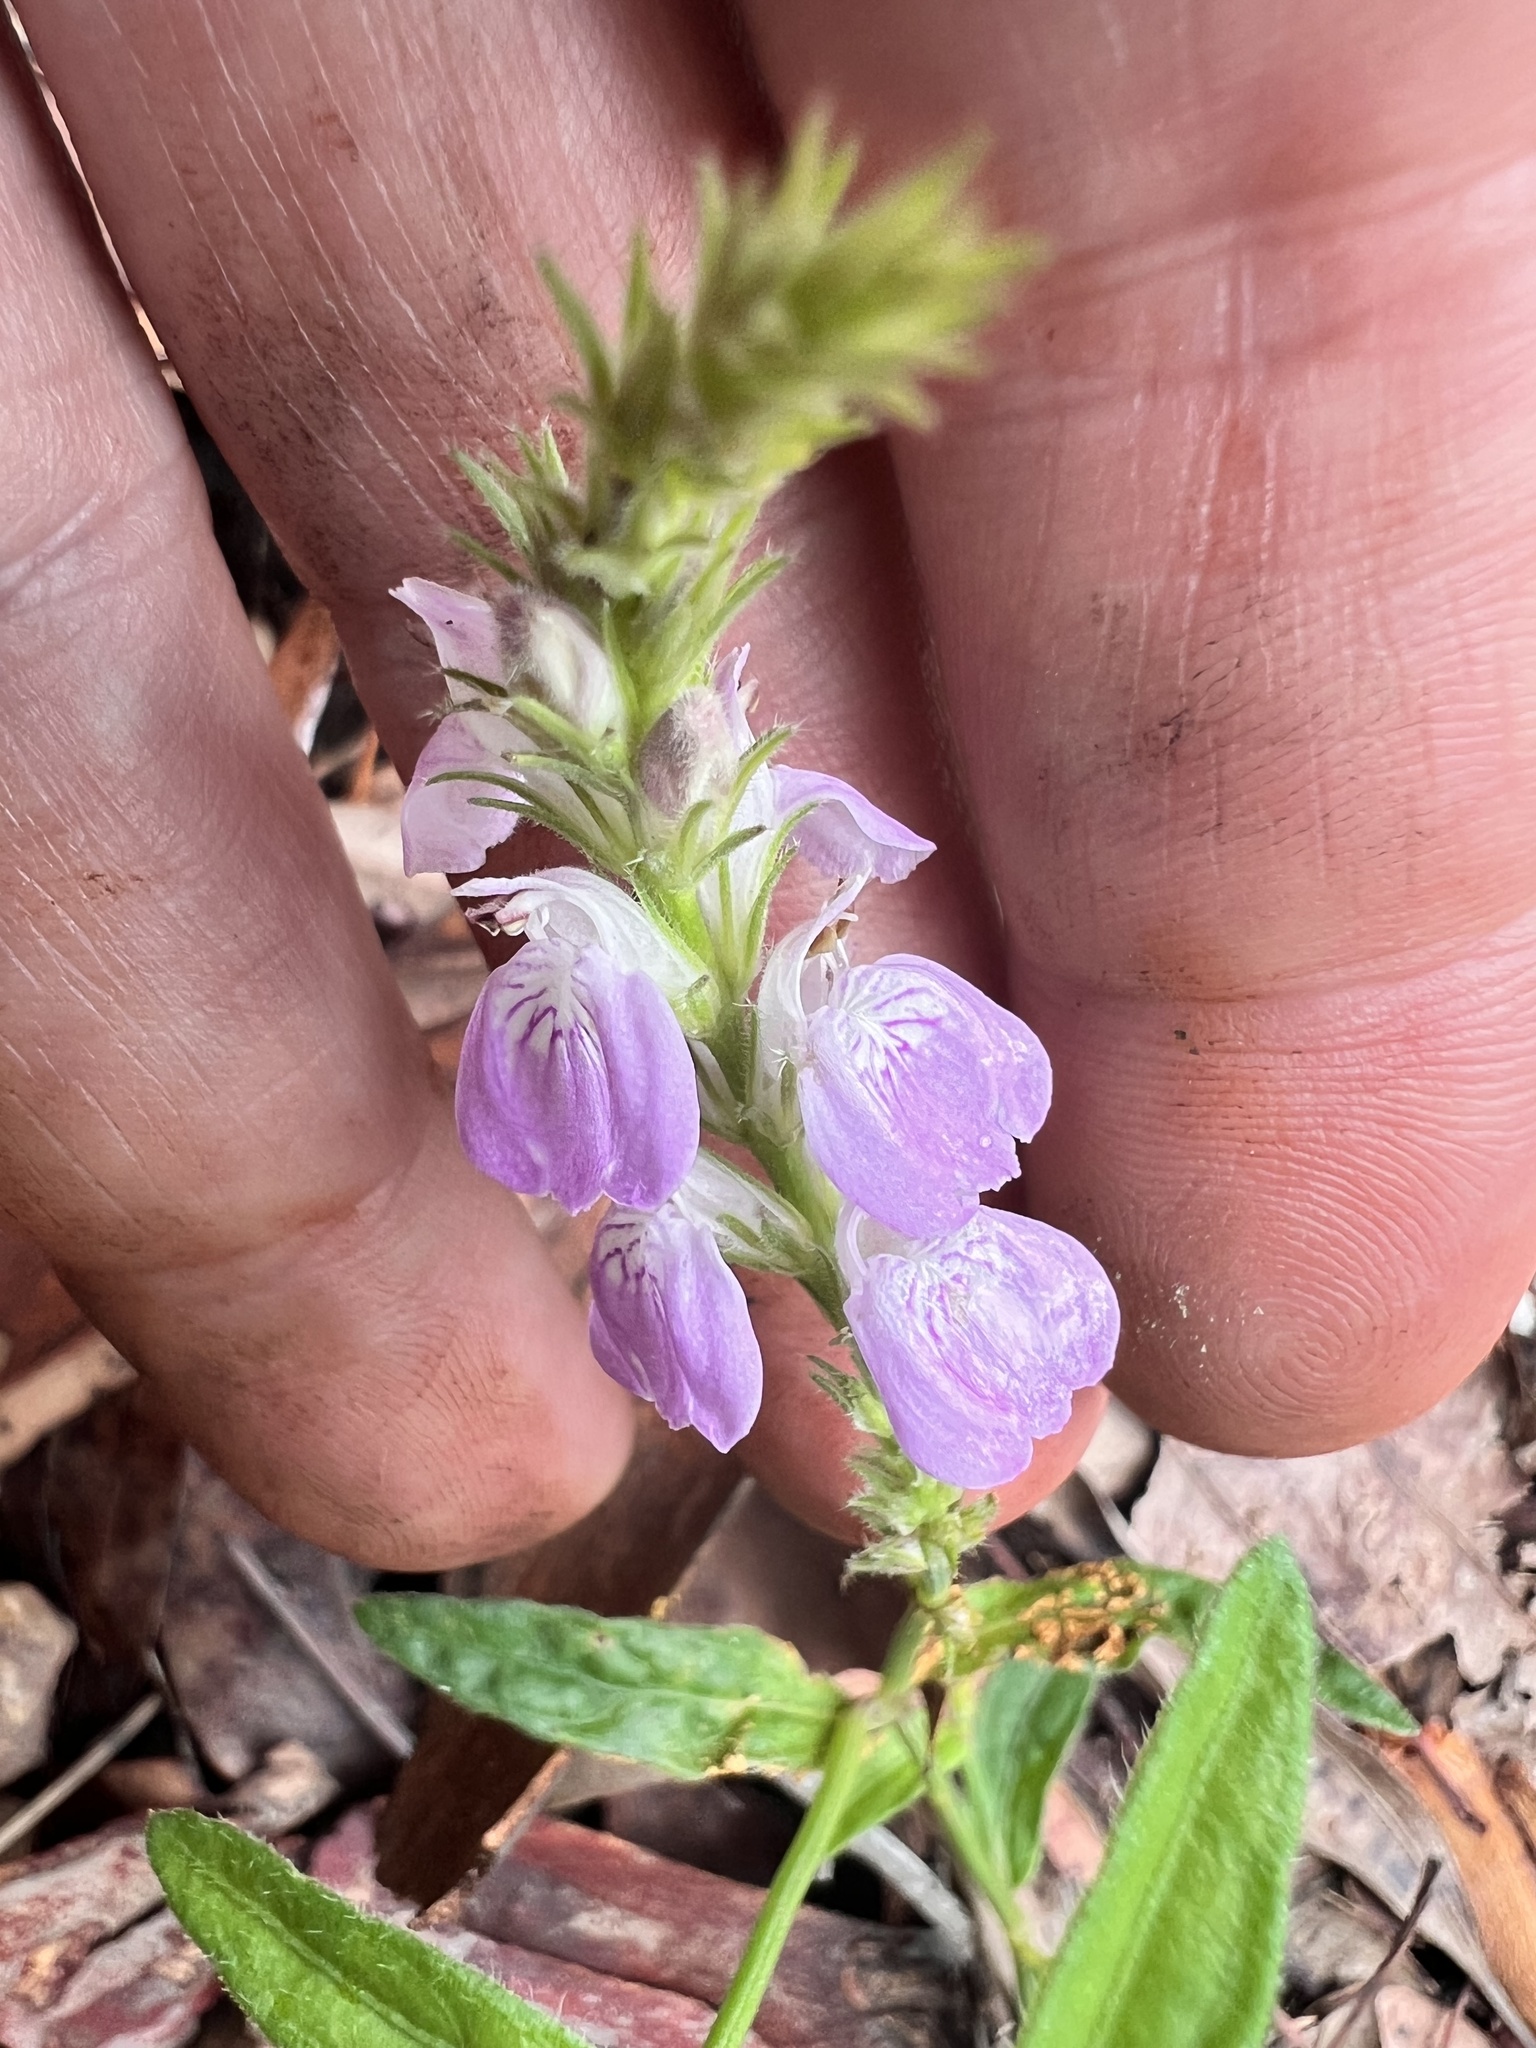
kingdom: Plantae
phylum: Tracheophyta
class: Magnoliopsida
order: Lamiales
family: Acanthaceae
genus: Rostellularia
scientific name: Rostellularia adscendens
